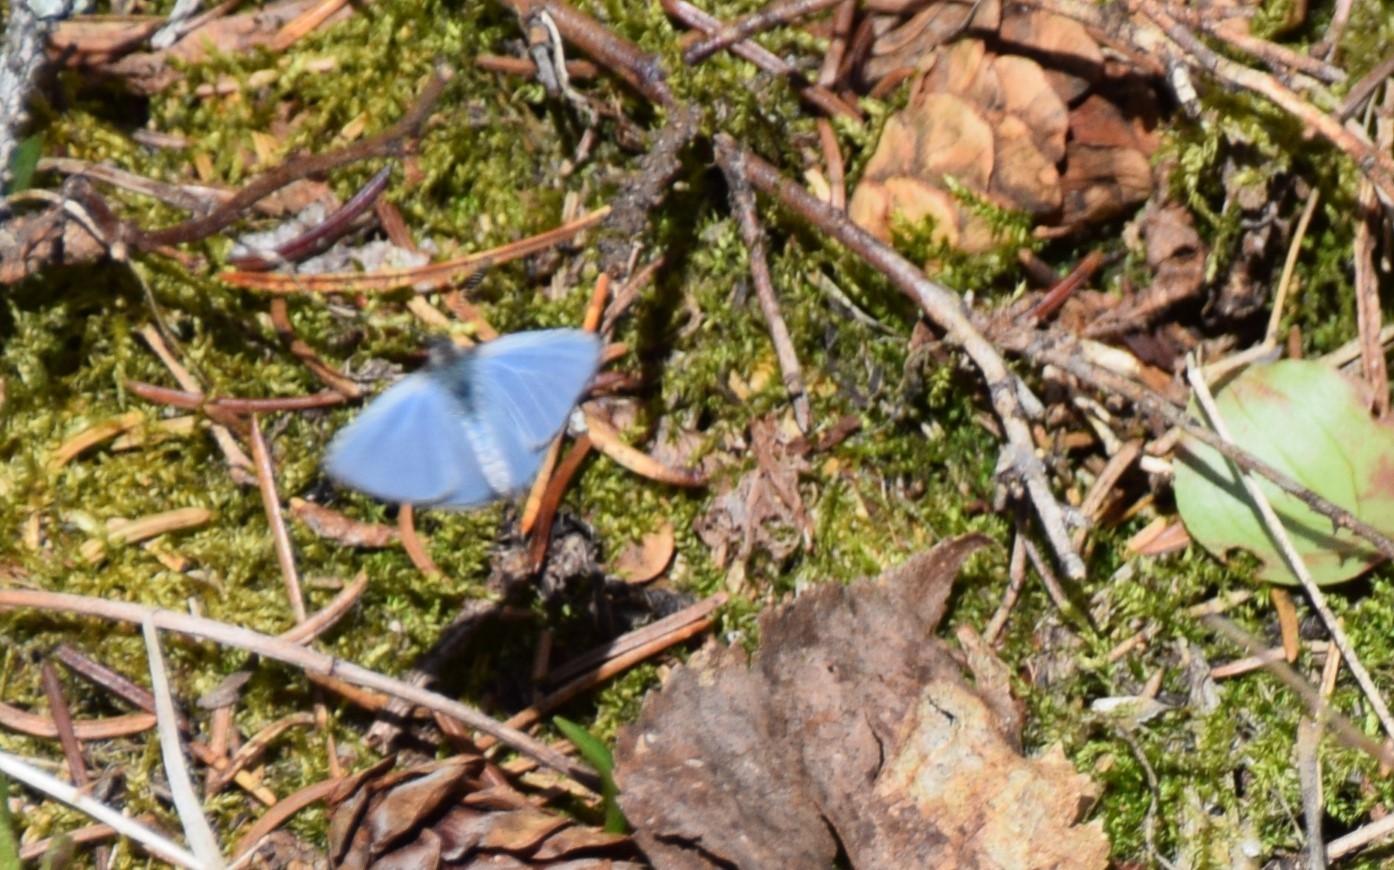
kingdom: Animalia
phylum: Arthropoda
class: Insecta
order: Lepidoptera
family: Lycaenidae
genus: Celastrina
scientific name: Celastrina lucia
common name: Lucia azure
